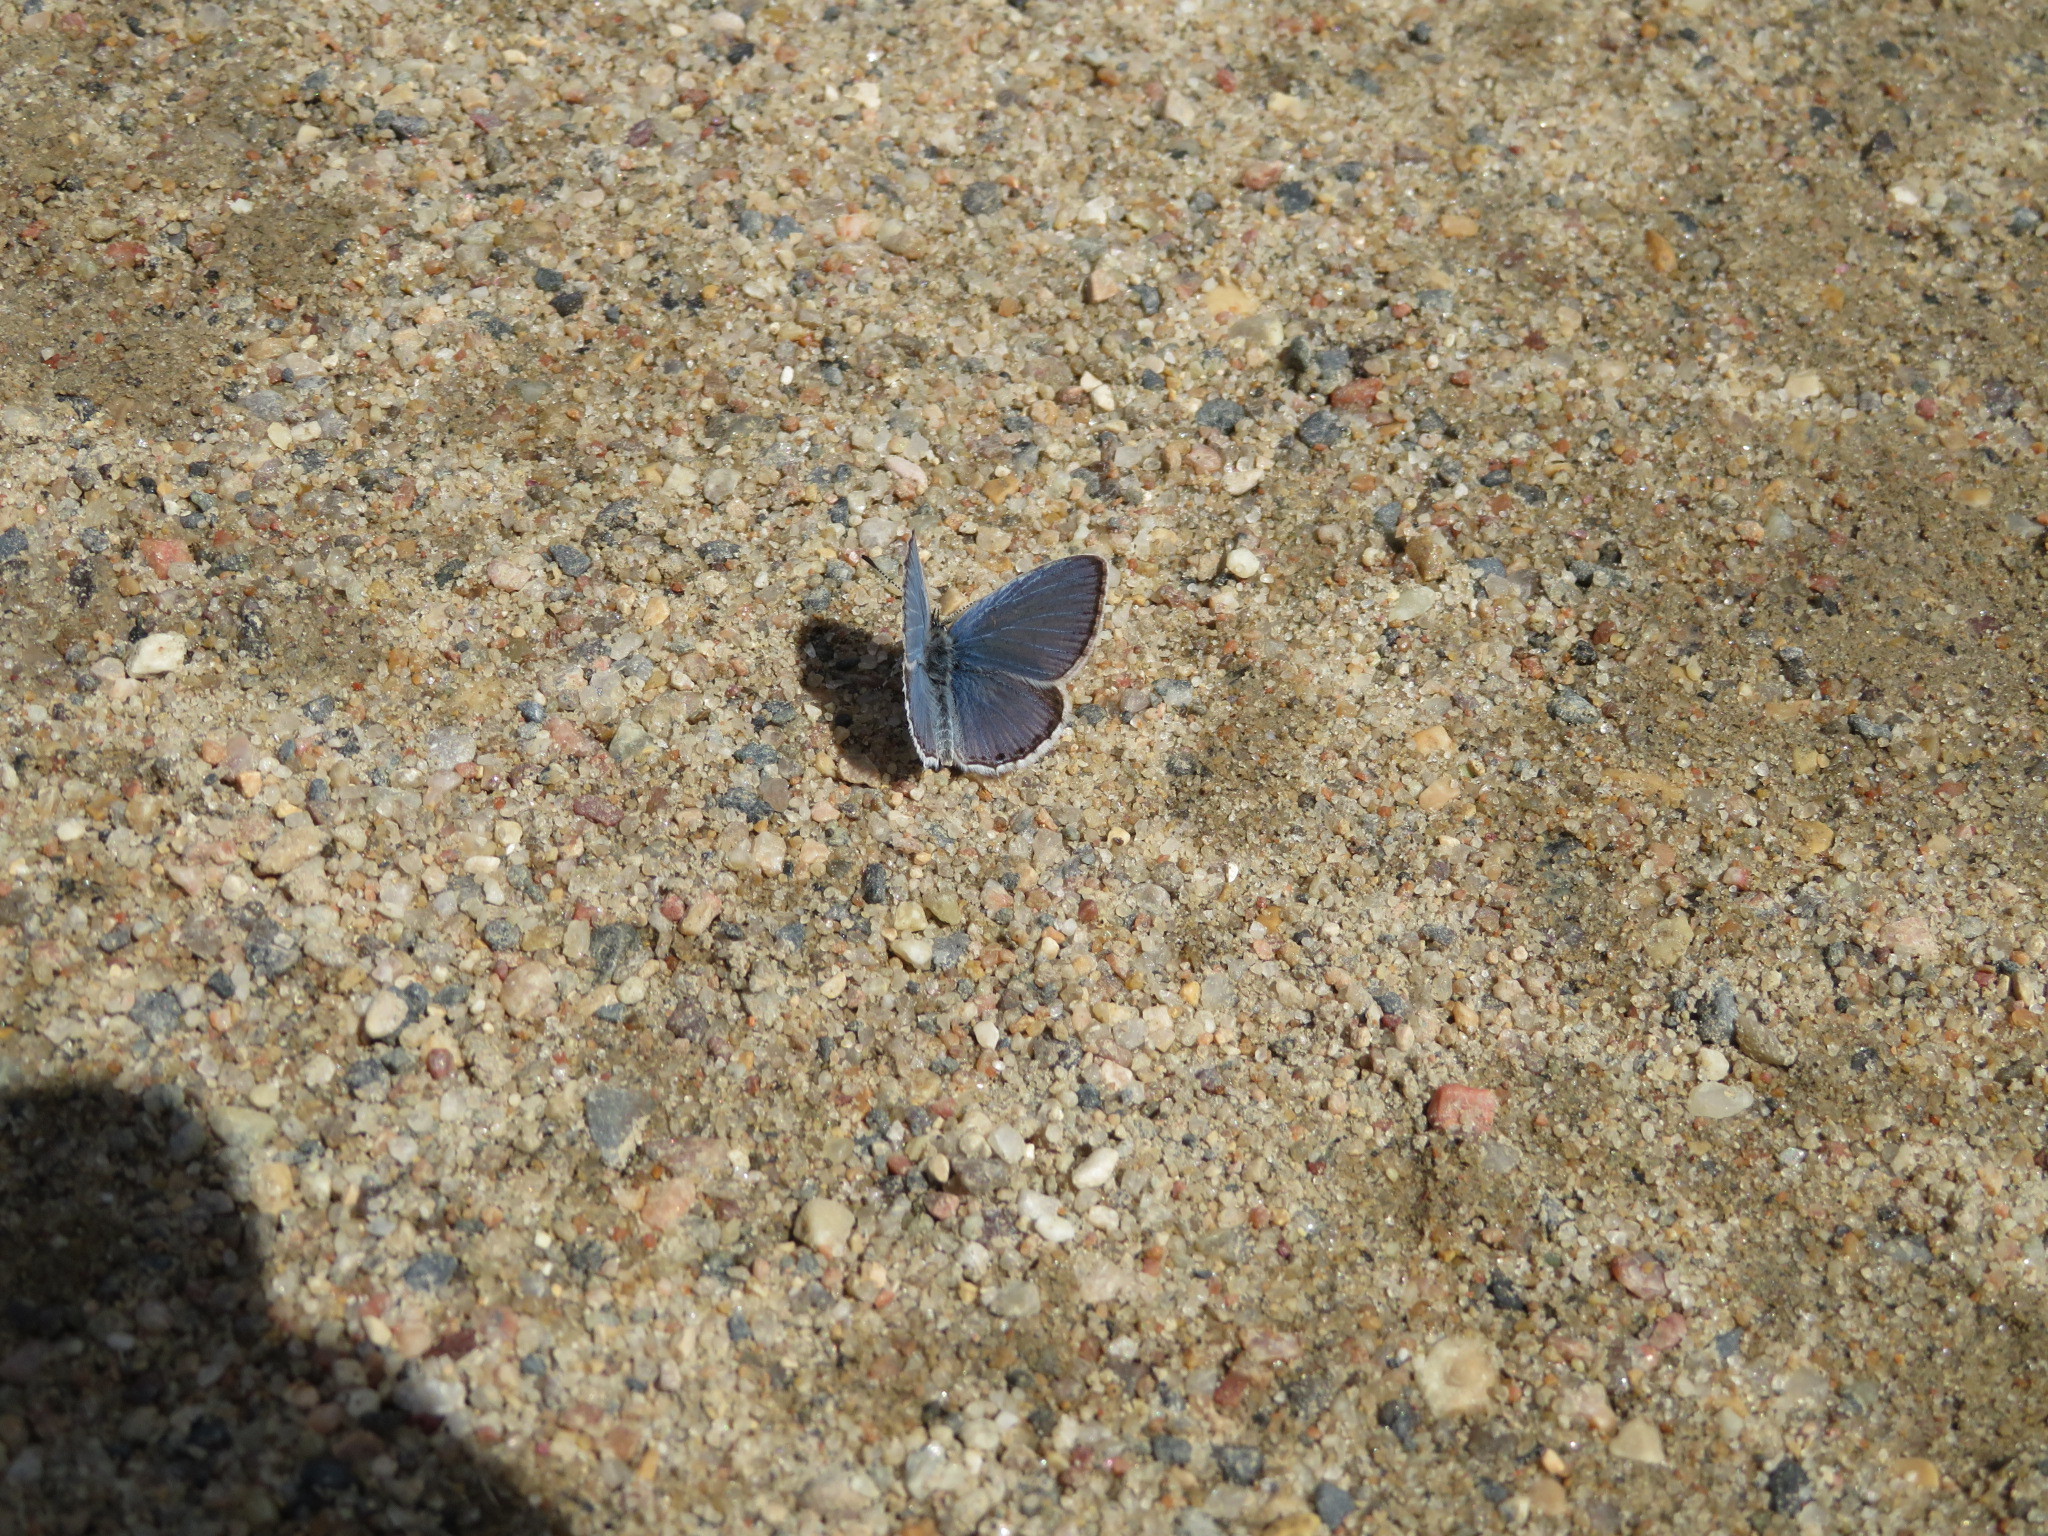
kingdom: Animalia
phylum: Arthropoda
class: Insecta
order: Lepidoptera
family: Lycaenidae
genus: Elkalyce
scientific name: Elkalyce amyntula
